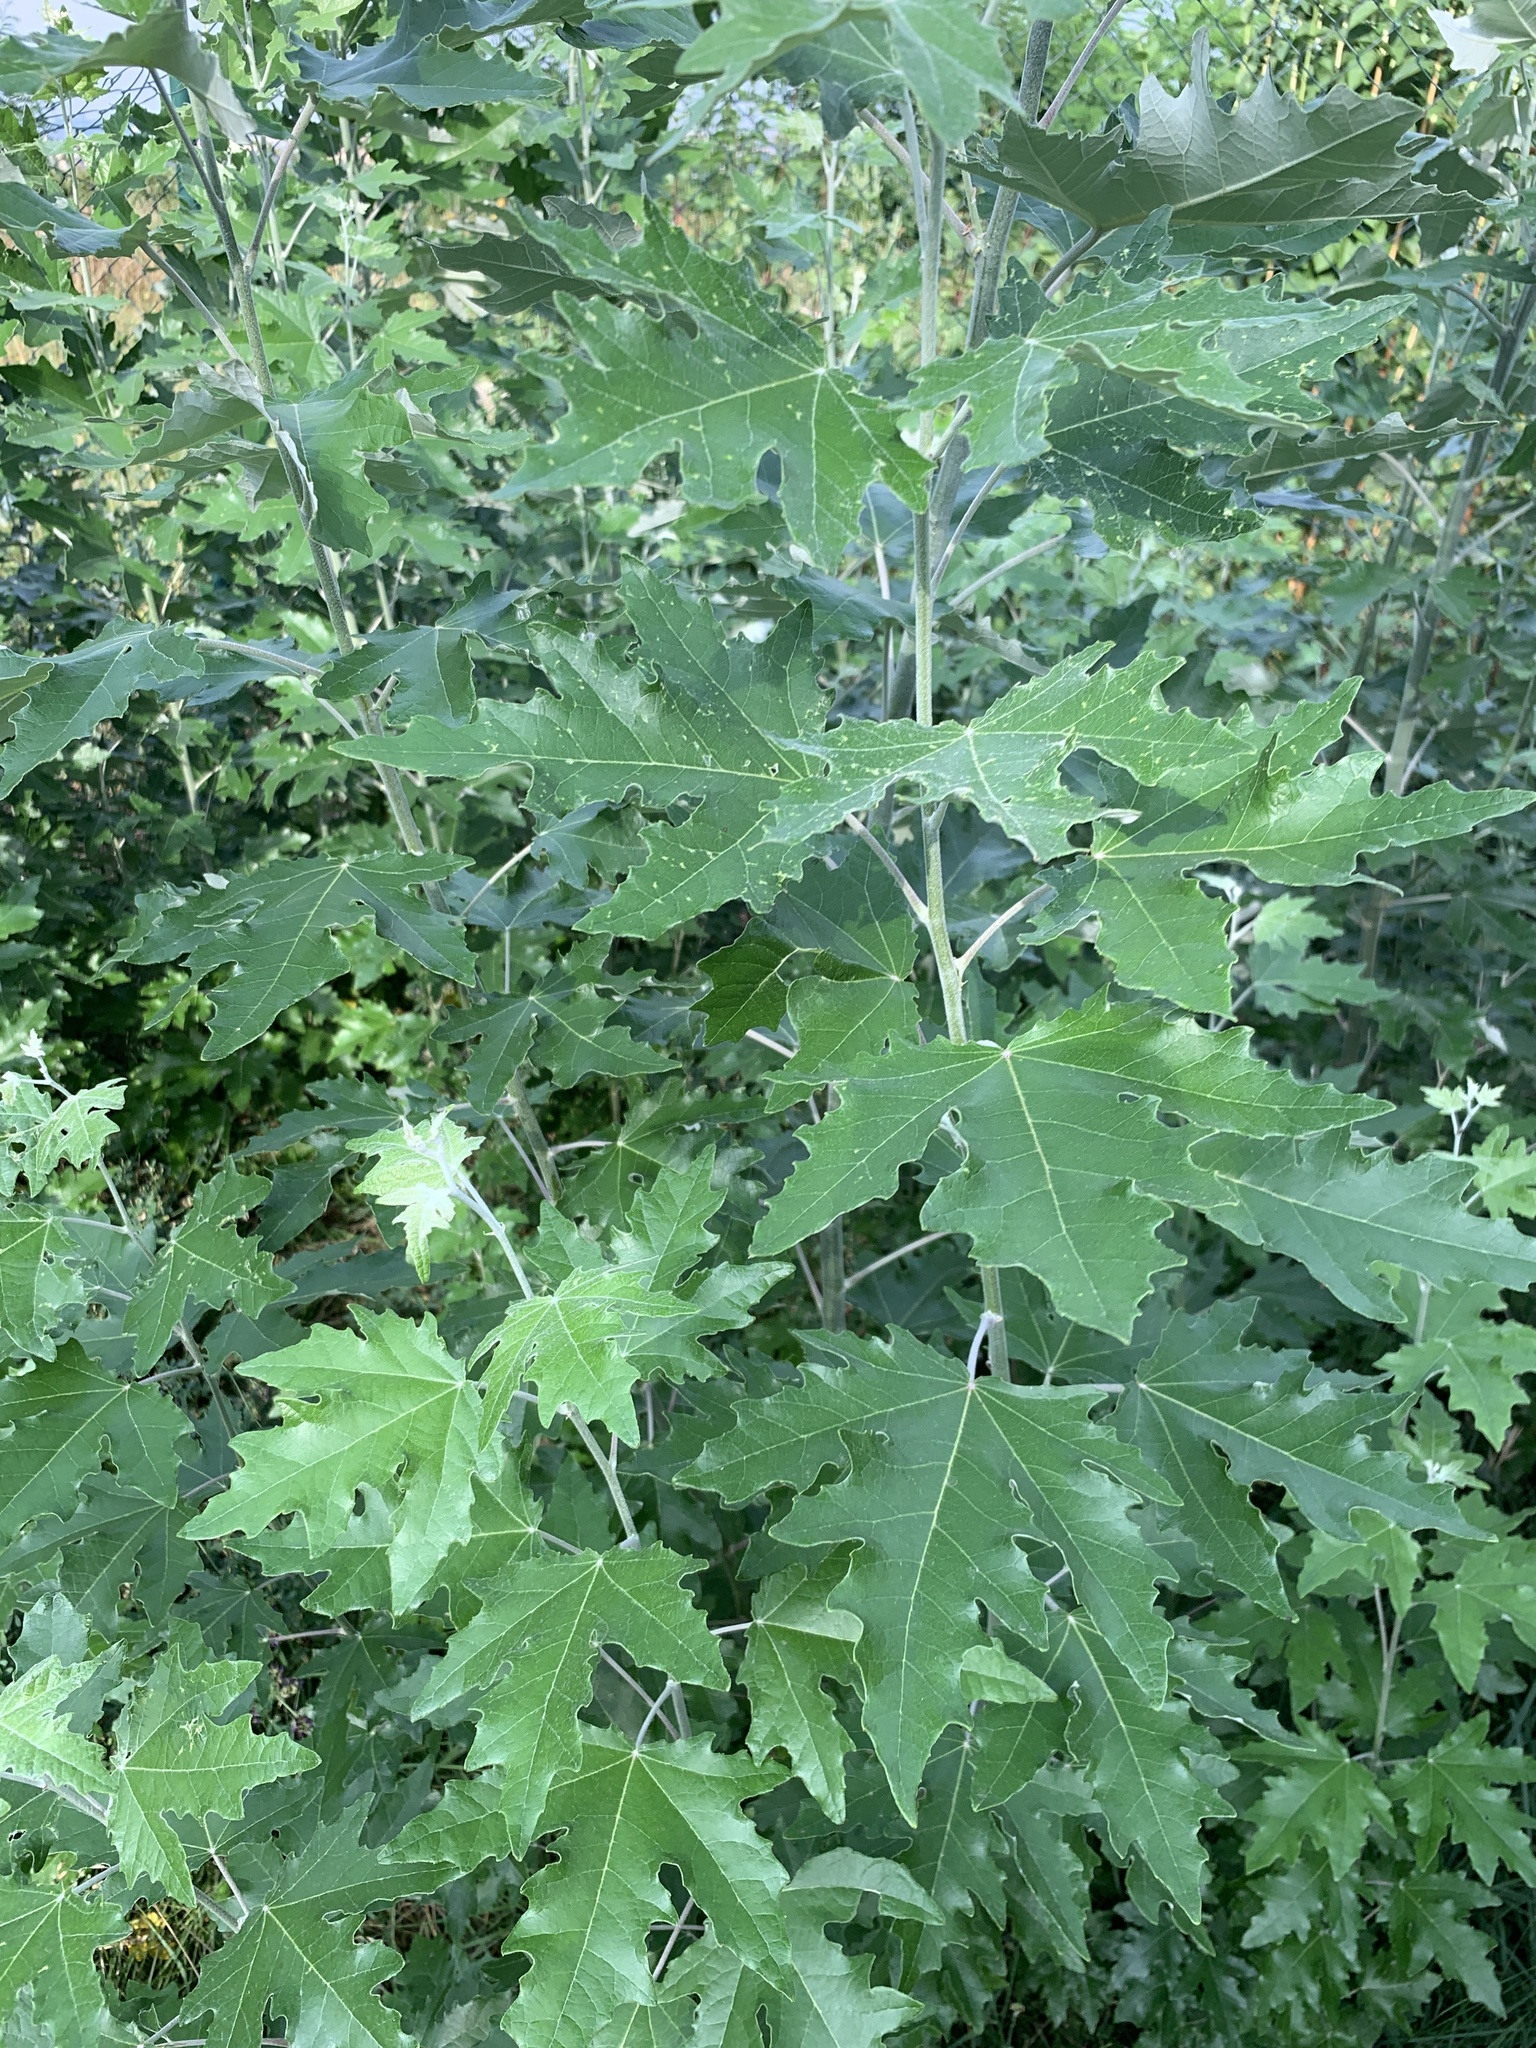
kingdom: Plantae
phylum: Tracheophyta
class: Magnoliopsida
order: Malpighiales
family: Salicaceae
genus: Populus
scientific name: Populus alba
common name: White poplar
